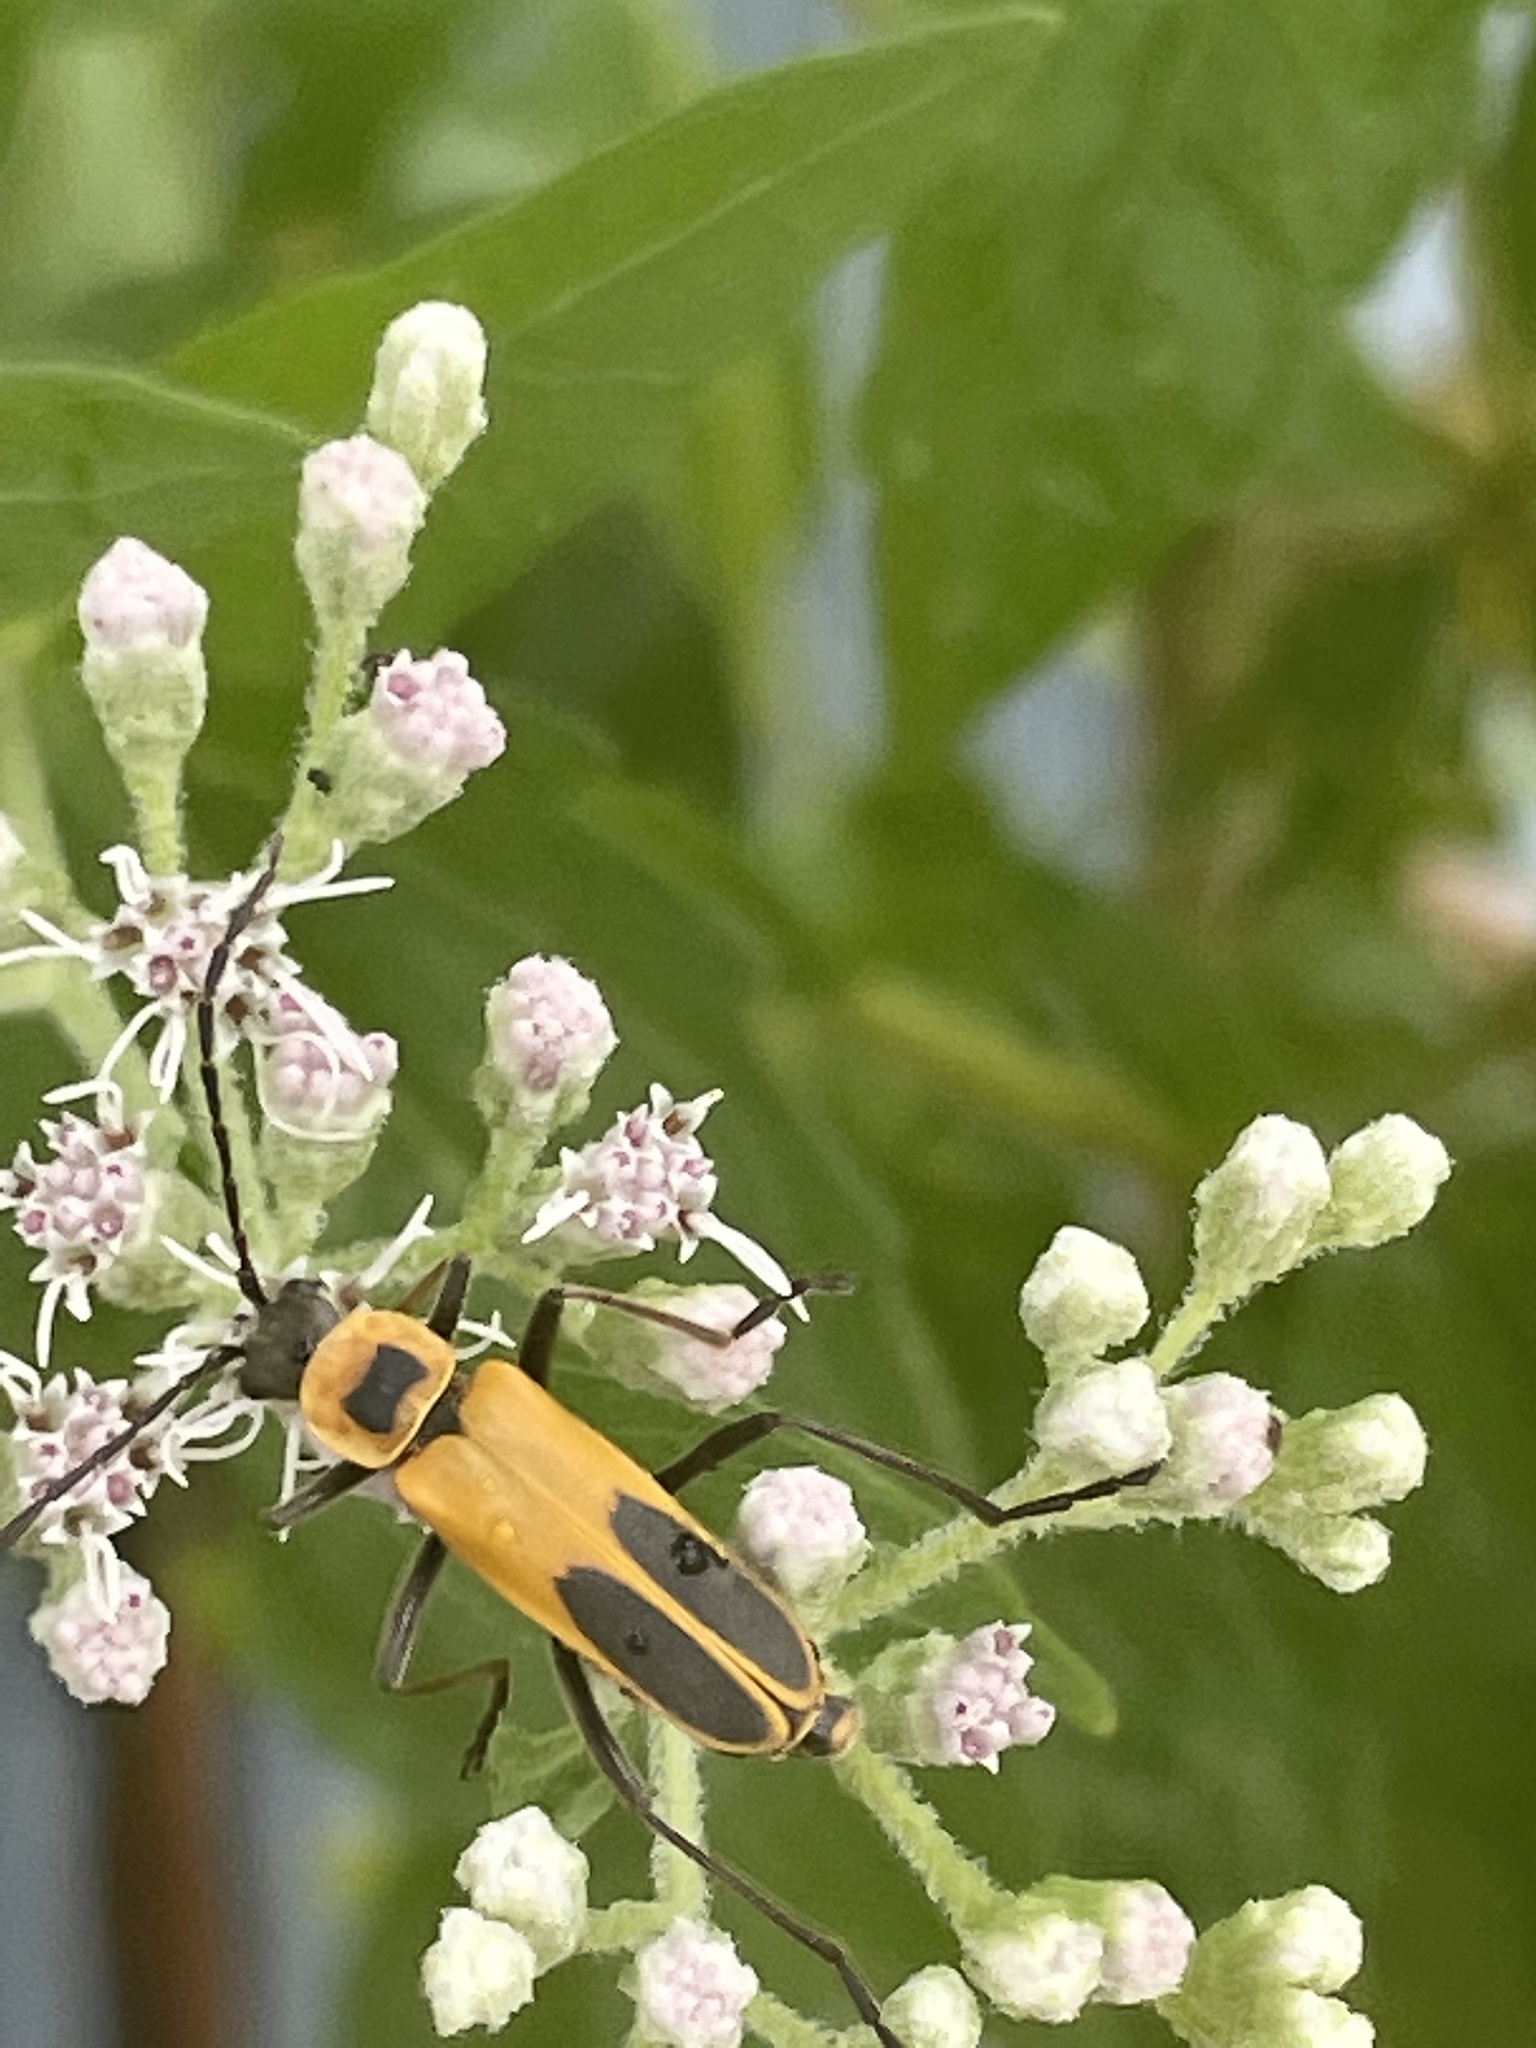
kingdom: Animalia
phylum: Arthropoda
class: Insecta
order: Coleoptera
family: Cantharidae
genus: Chauliognathus
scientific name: Chauliognathus pensylvanicus
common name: Goldenrod soldier beetle
